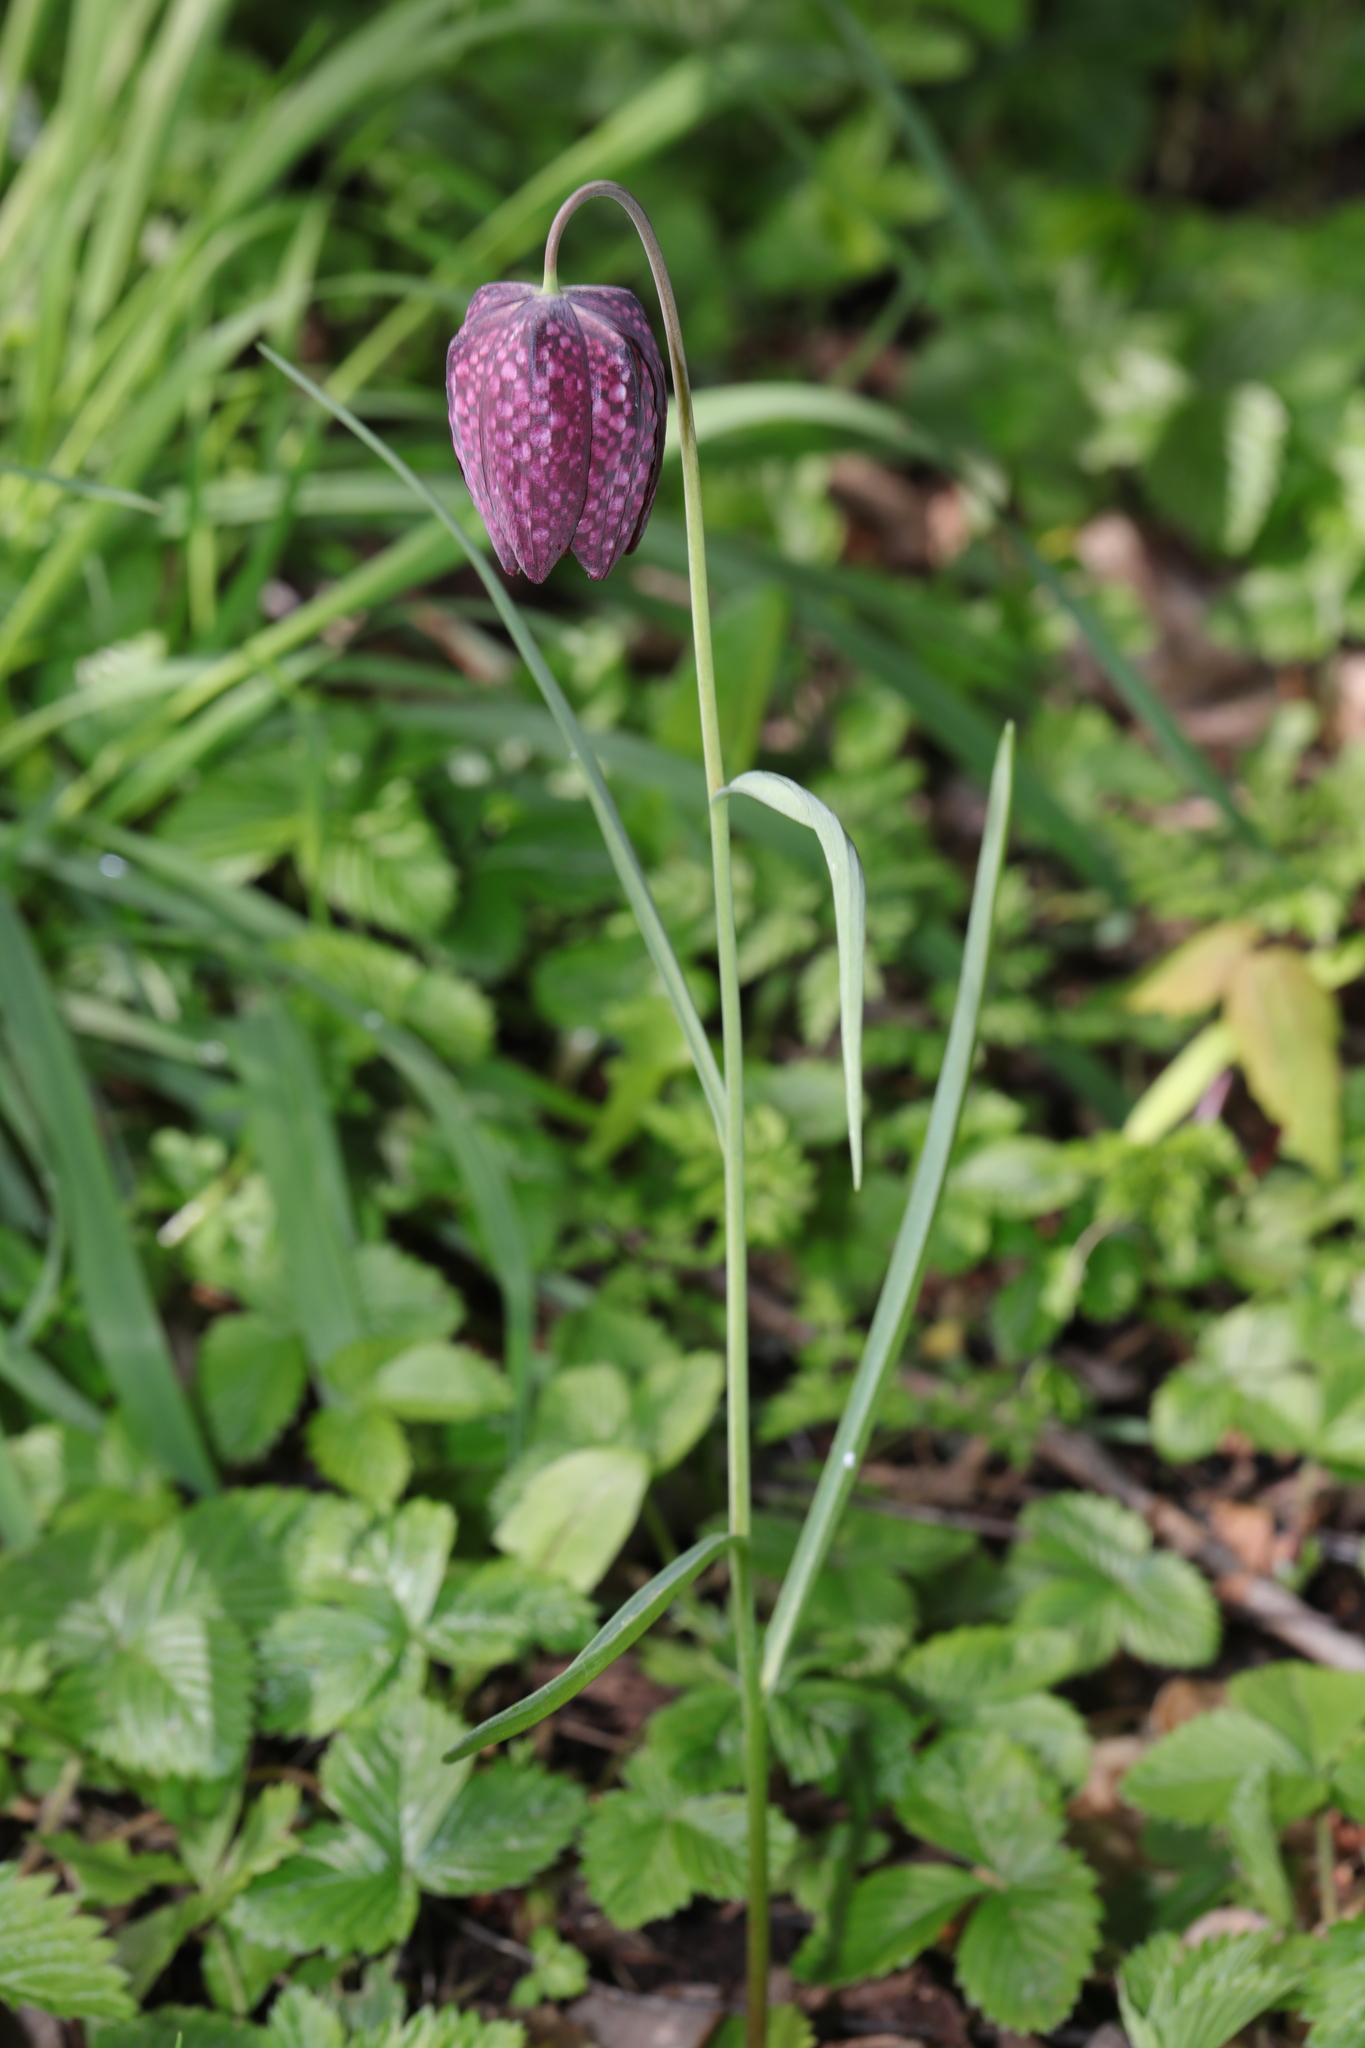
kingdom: Plantae
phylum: Tracheophyta
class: Liliopsida
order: Liliales
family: Liliaceae
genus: Fritillaria
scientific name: Fritillaria meleagris
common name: Fritillary
